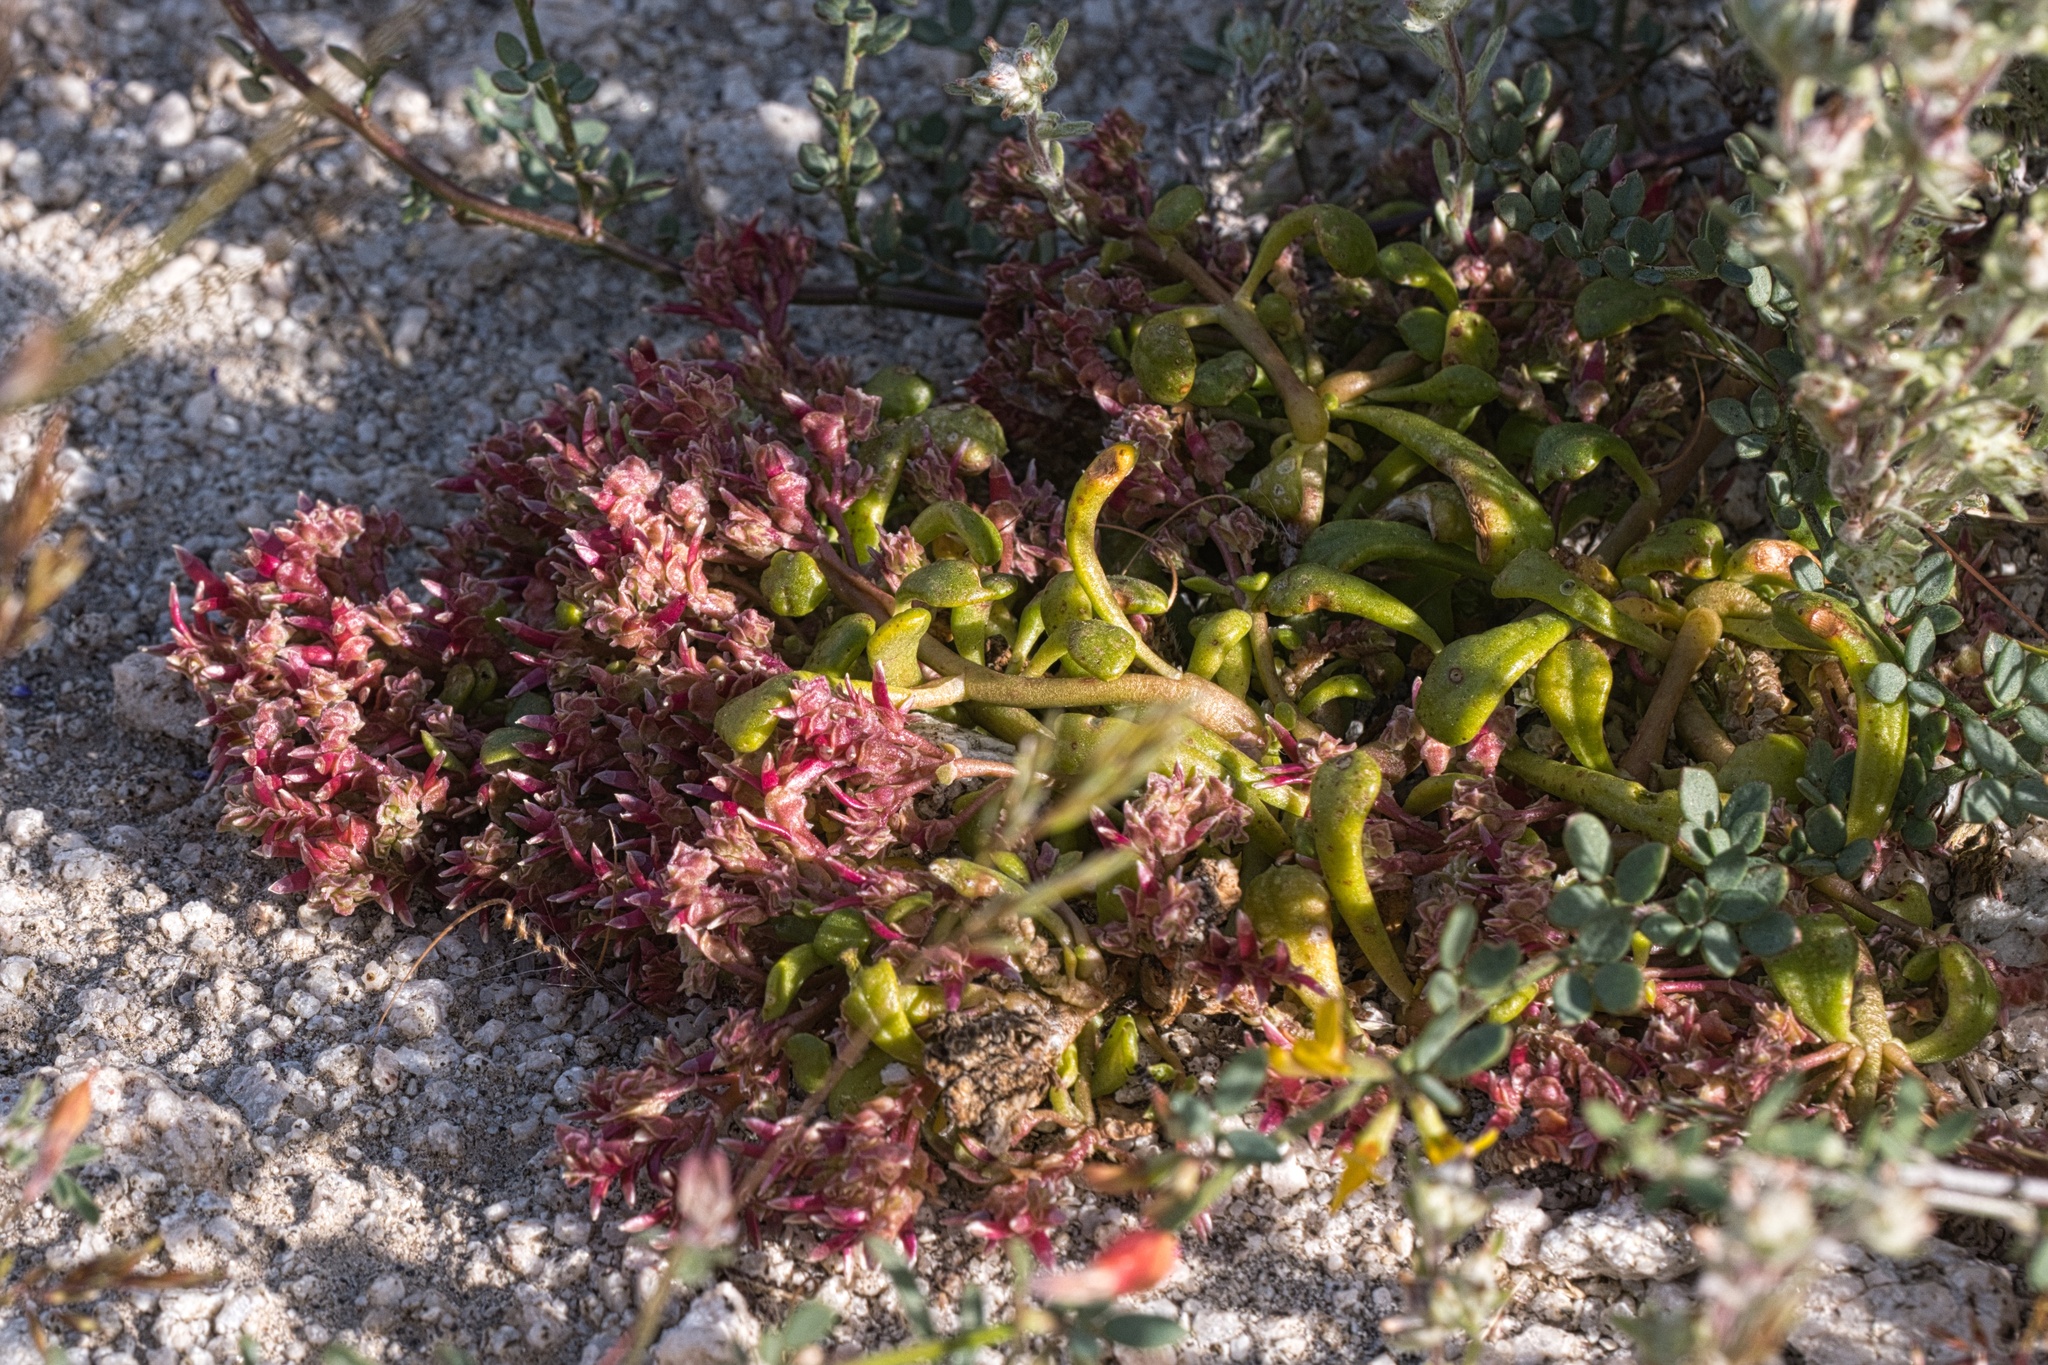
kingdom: Plantae
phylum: Tracheophyta
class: Magnoliopsida
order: Caryophyllales
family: Montiaceae
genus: Calyptridium
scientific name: Calyptridium monandrum
